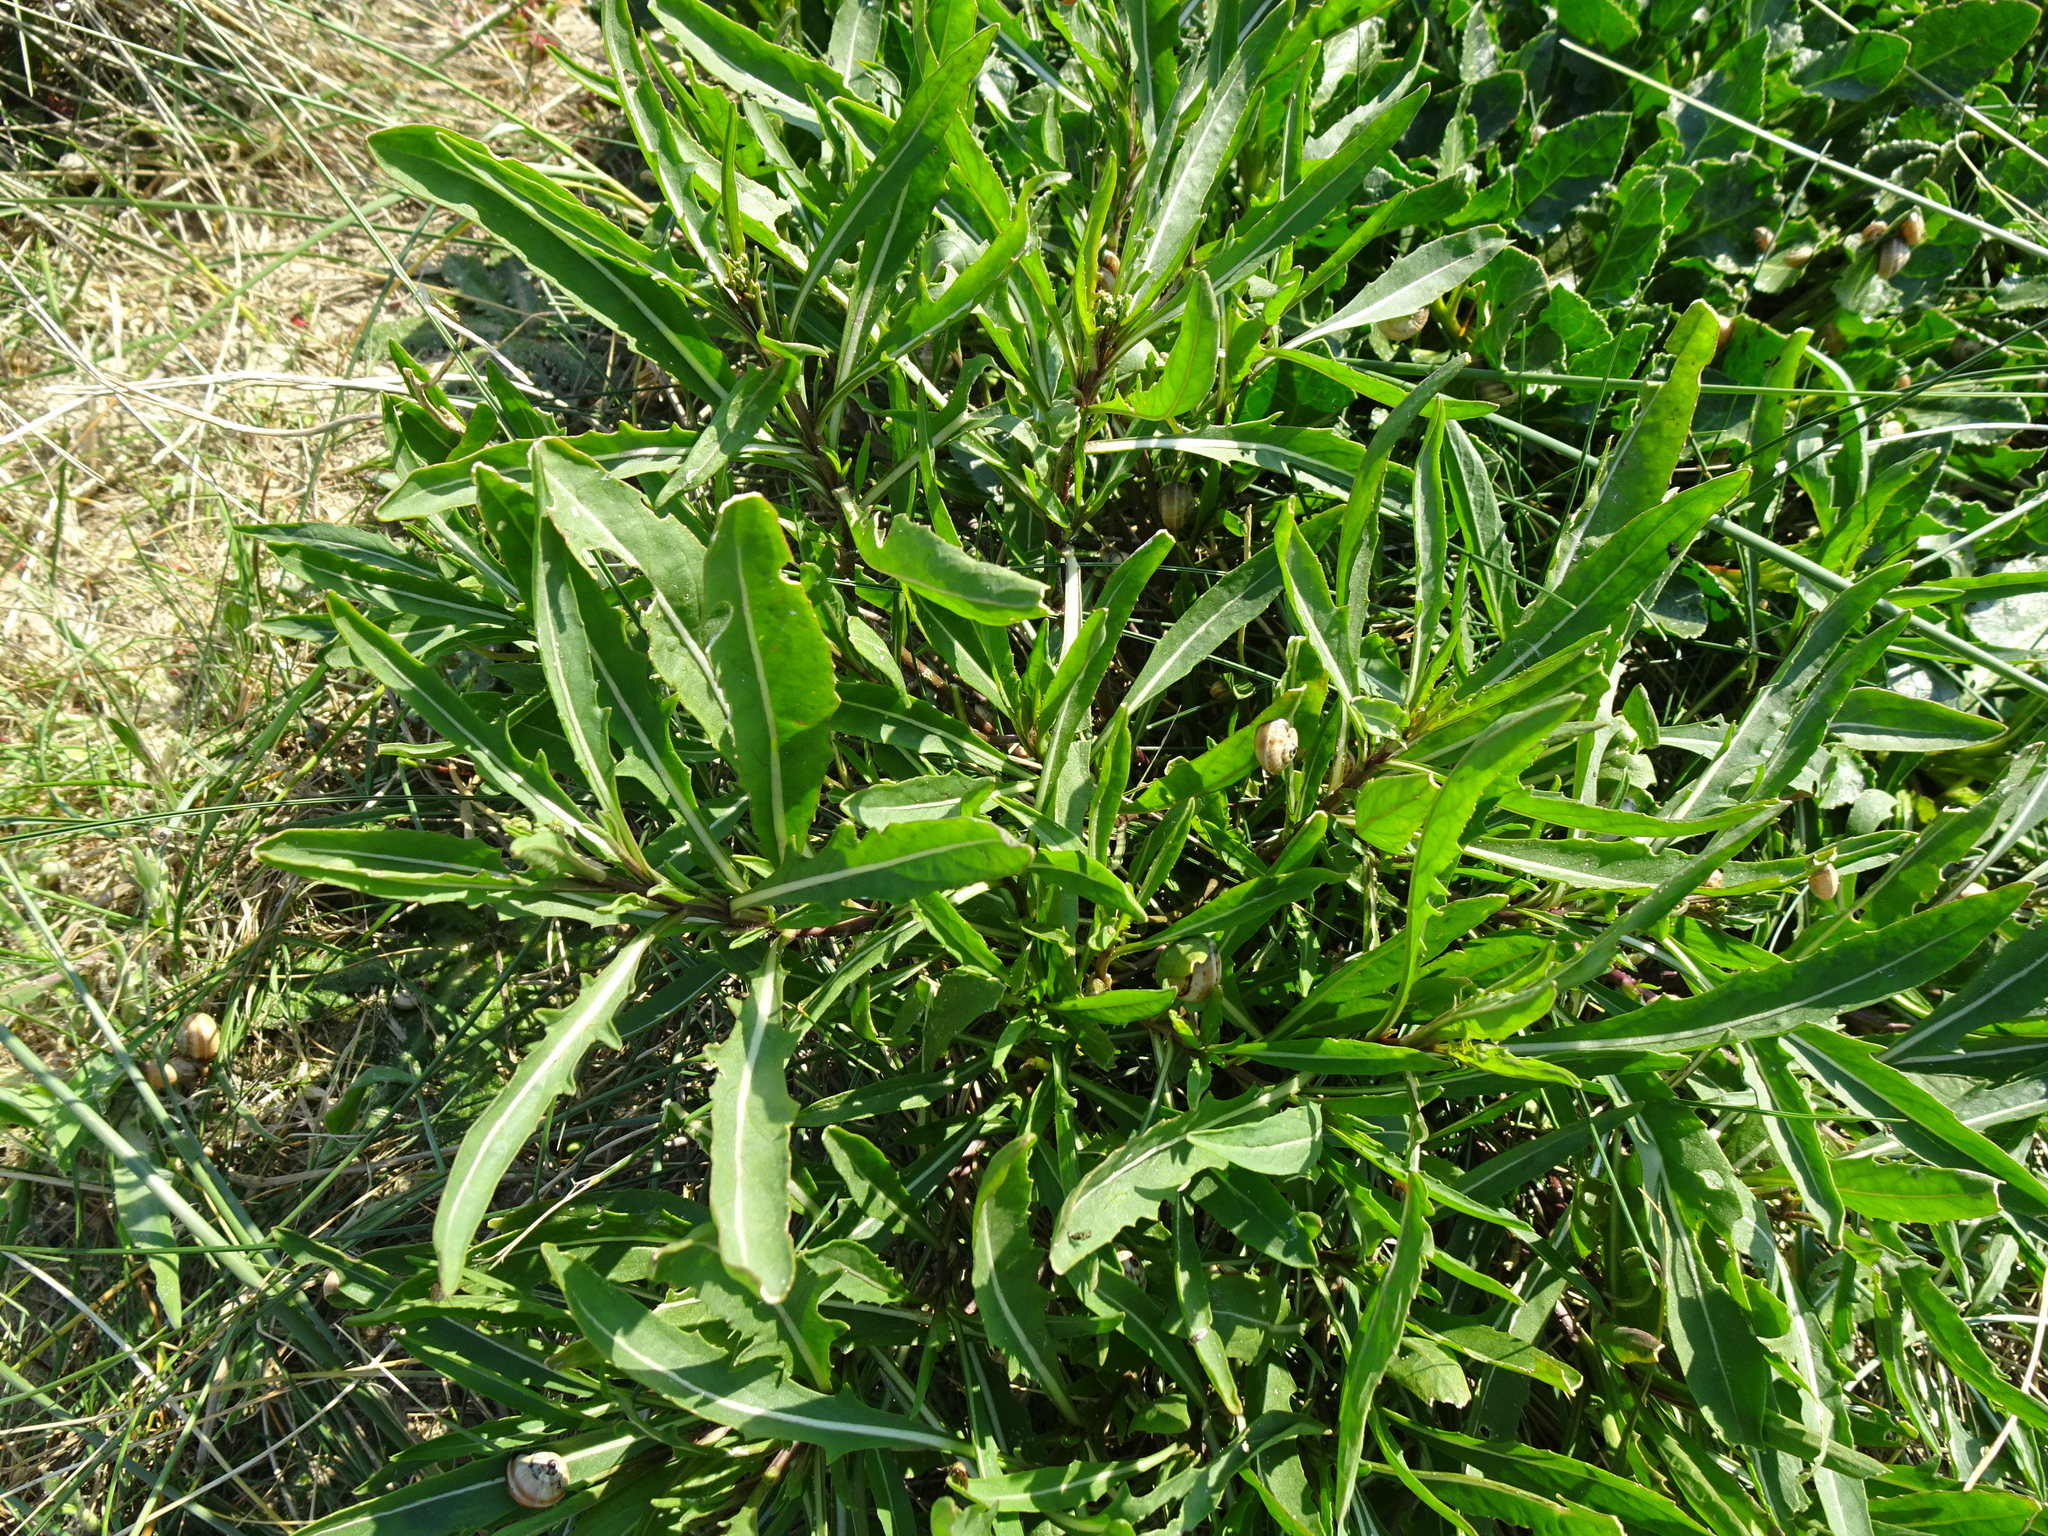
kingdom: Plantae
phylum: Tracheophyta
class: Magnoliopsida
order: Brassicales
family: Brassicaceae
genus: Diplotaxis
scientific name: Diplotaxis tenuifolia
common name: Perennial wall-rocket
